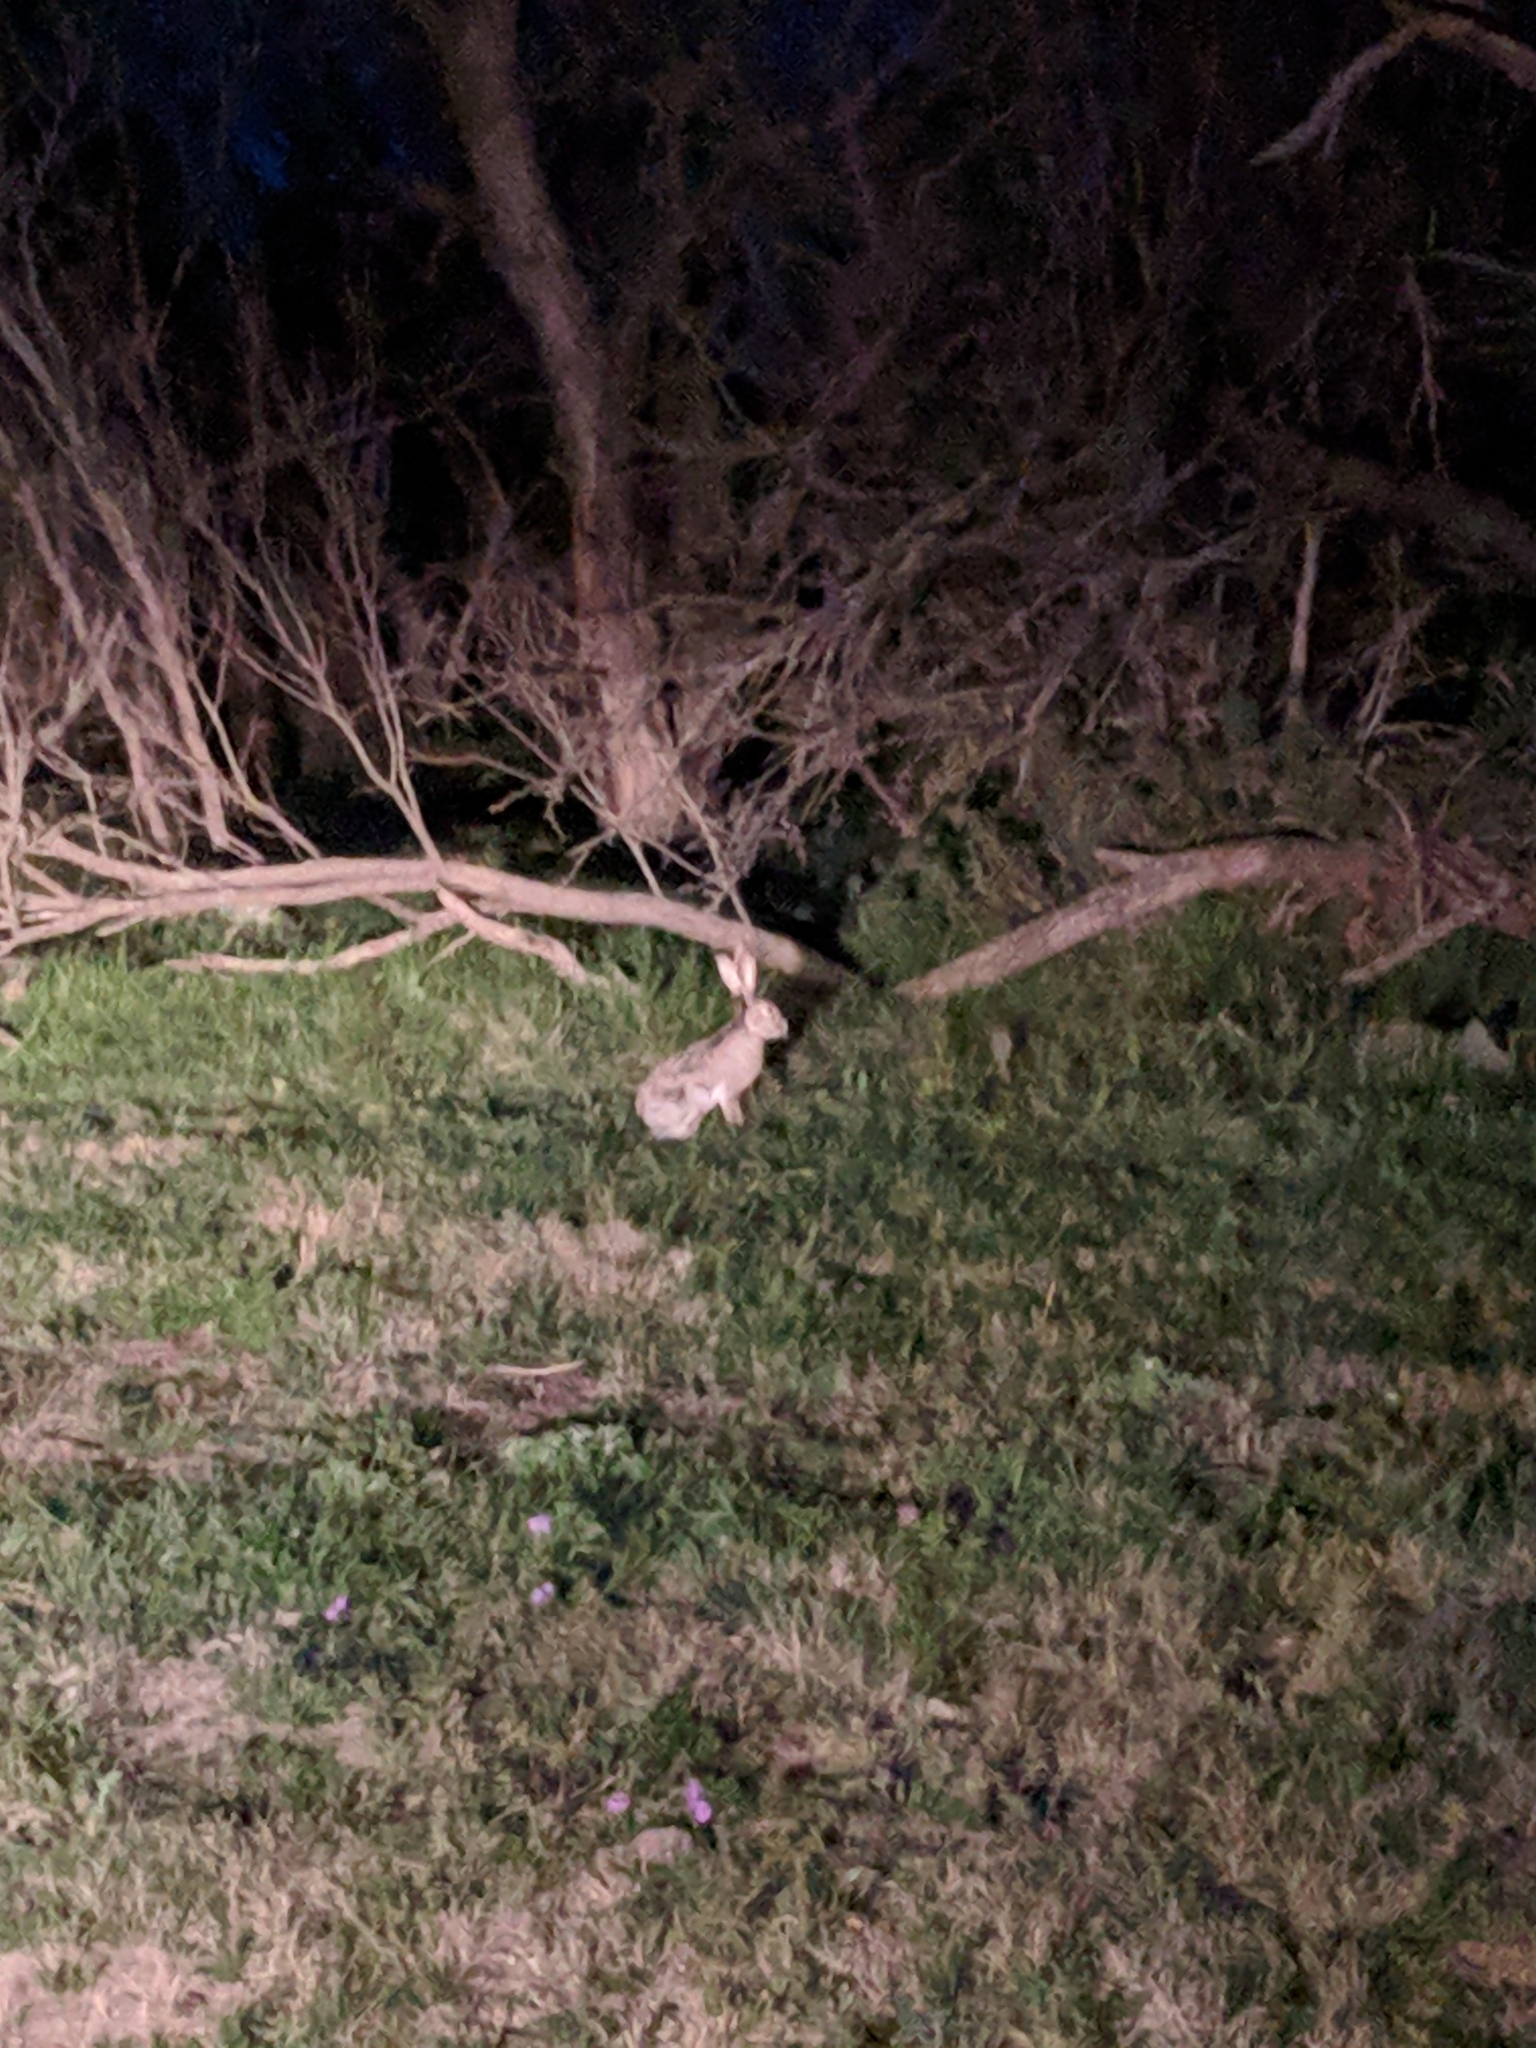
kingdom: Animalia
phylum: Chordata
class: Mammalia
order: Lagomorpha
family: Leporidae
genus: Lepus
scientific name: Lepus californicus
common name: Black-tailed jackrabbit
